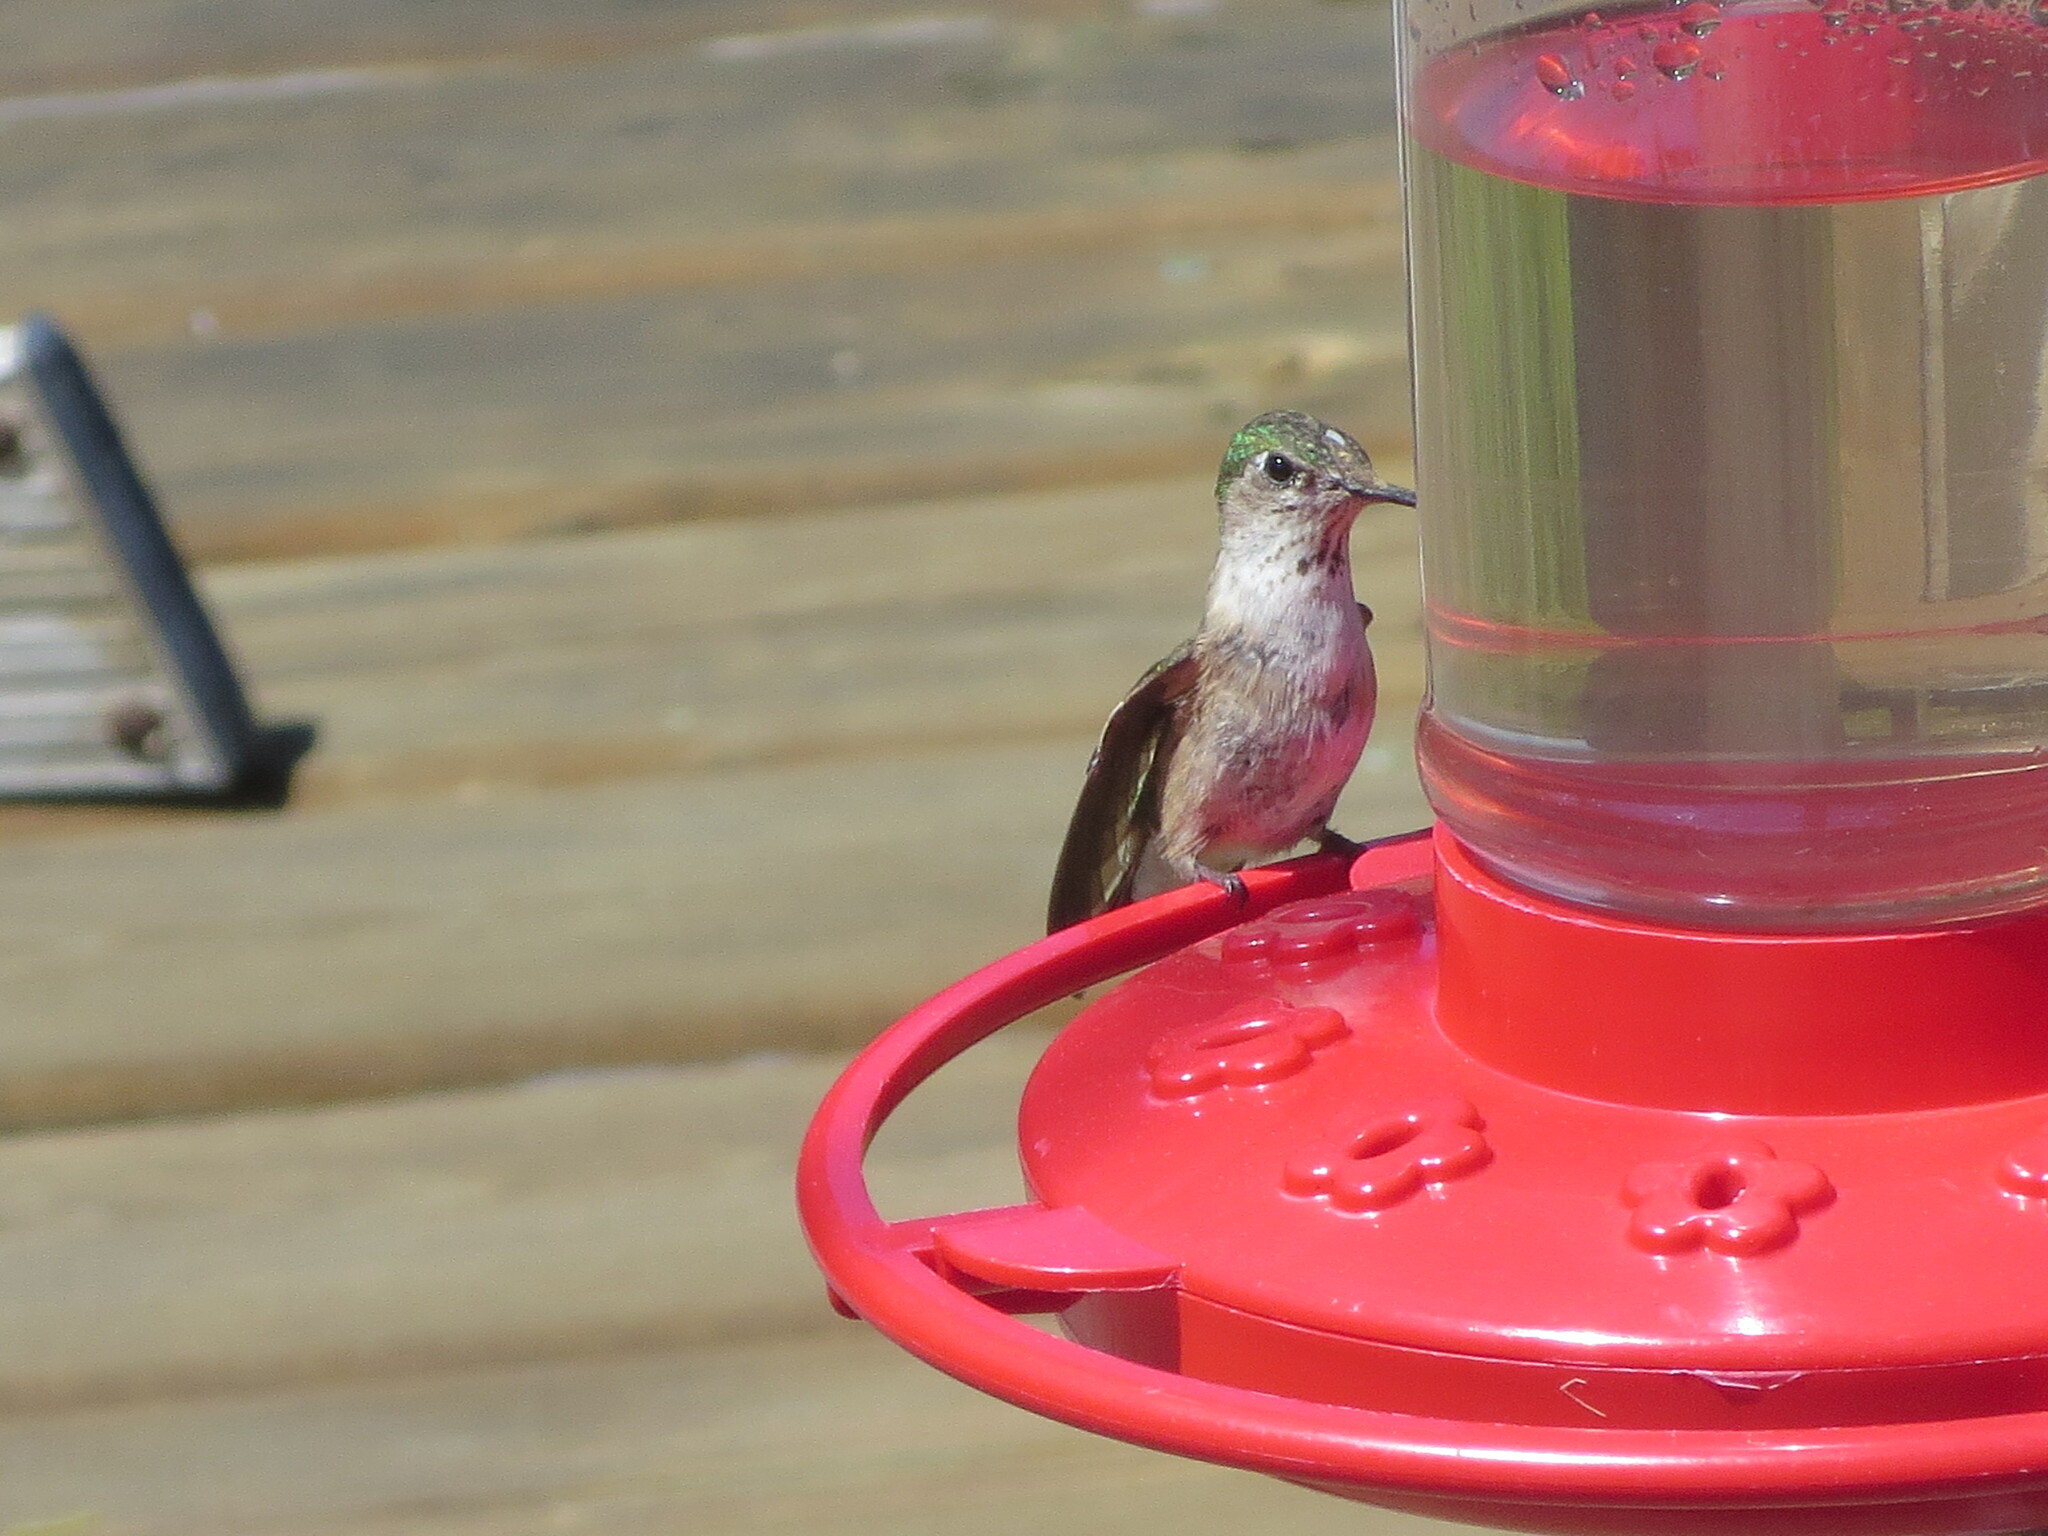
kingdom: Animalia
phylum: Chordata
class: Aves
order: Apodiformes
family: Trochilidae
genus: Selasphorus
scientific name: Selasphorus calliope
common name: Calliope hummingbird
